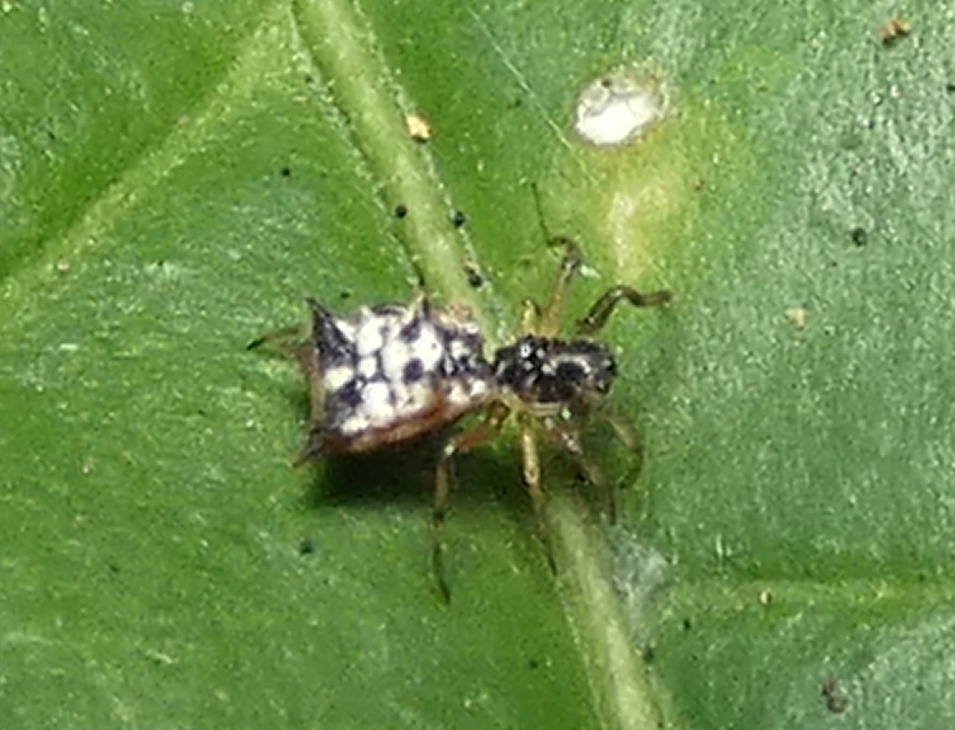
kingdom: Animalia
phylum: Arthropoda
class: Arachnida
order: Araneae
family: Araneidae
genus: Micrathena
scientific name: Micrathena picta
